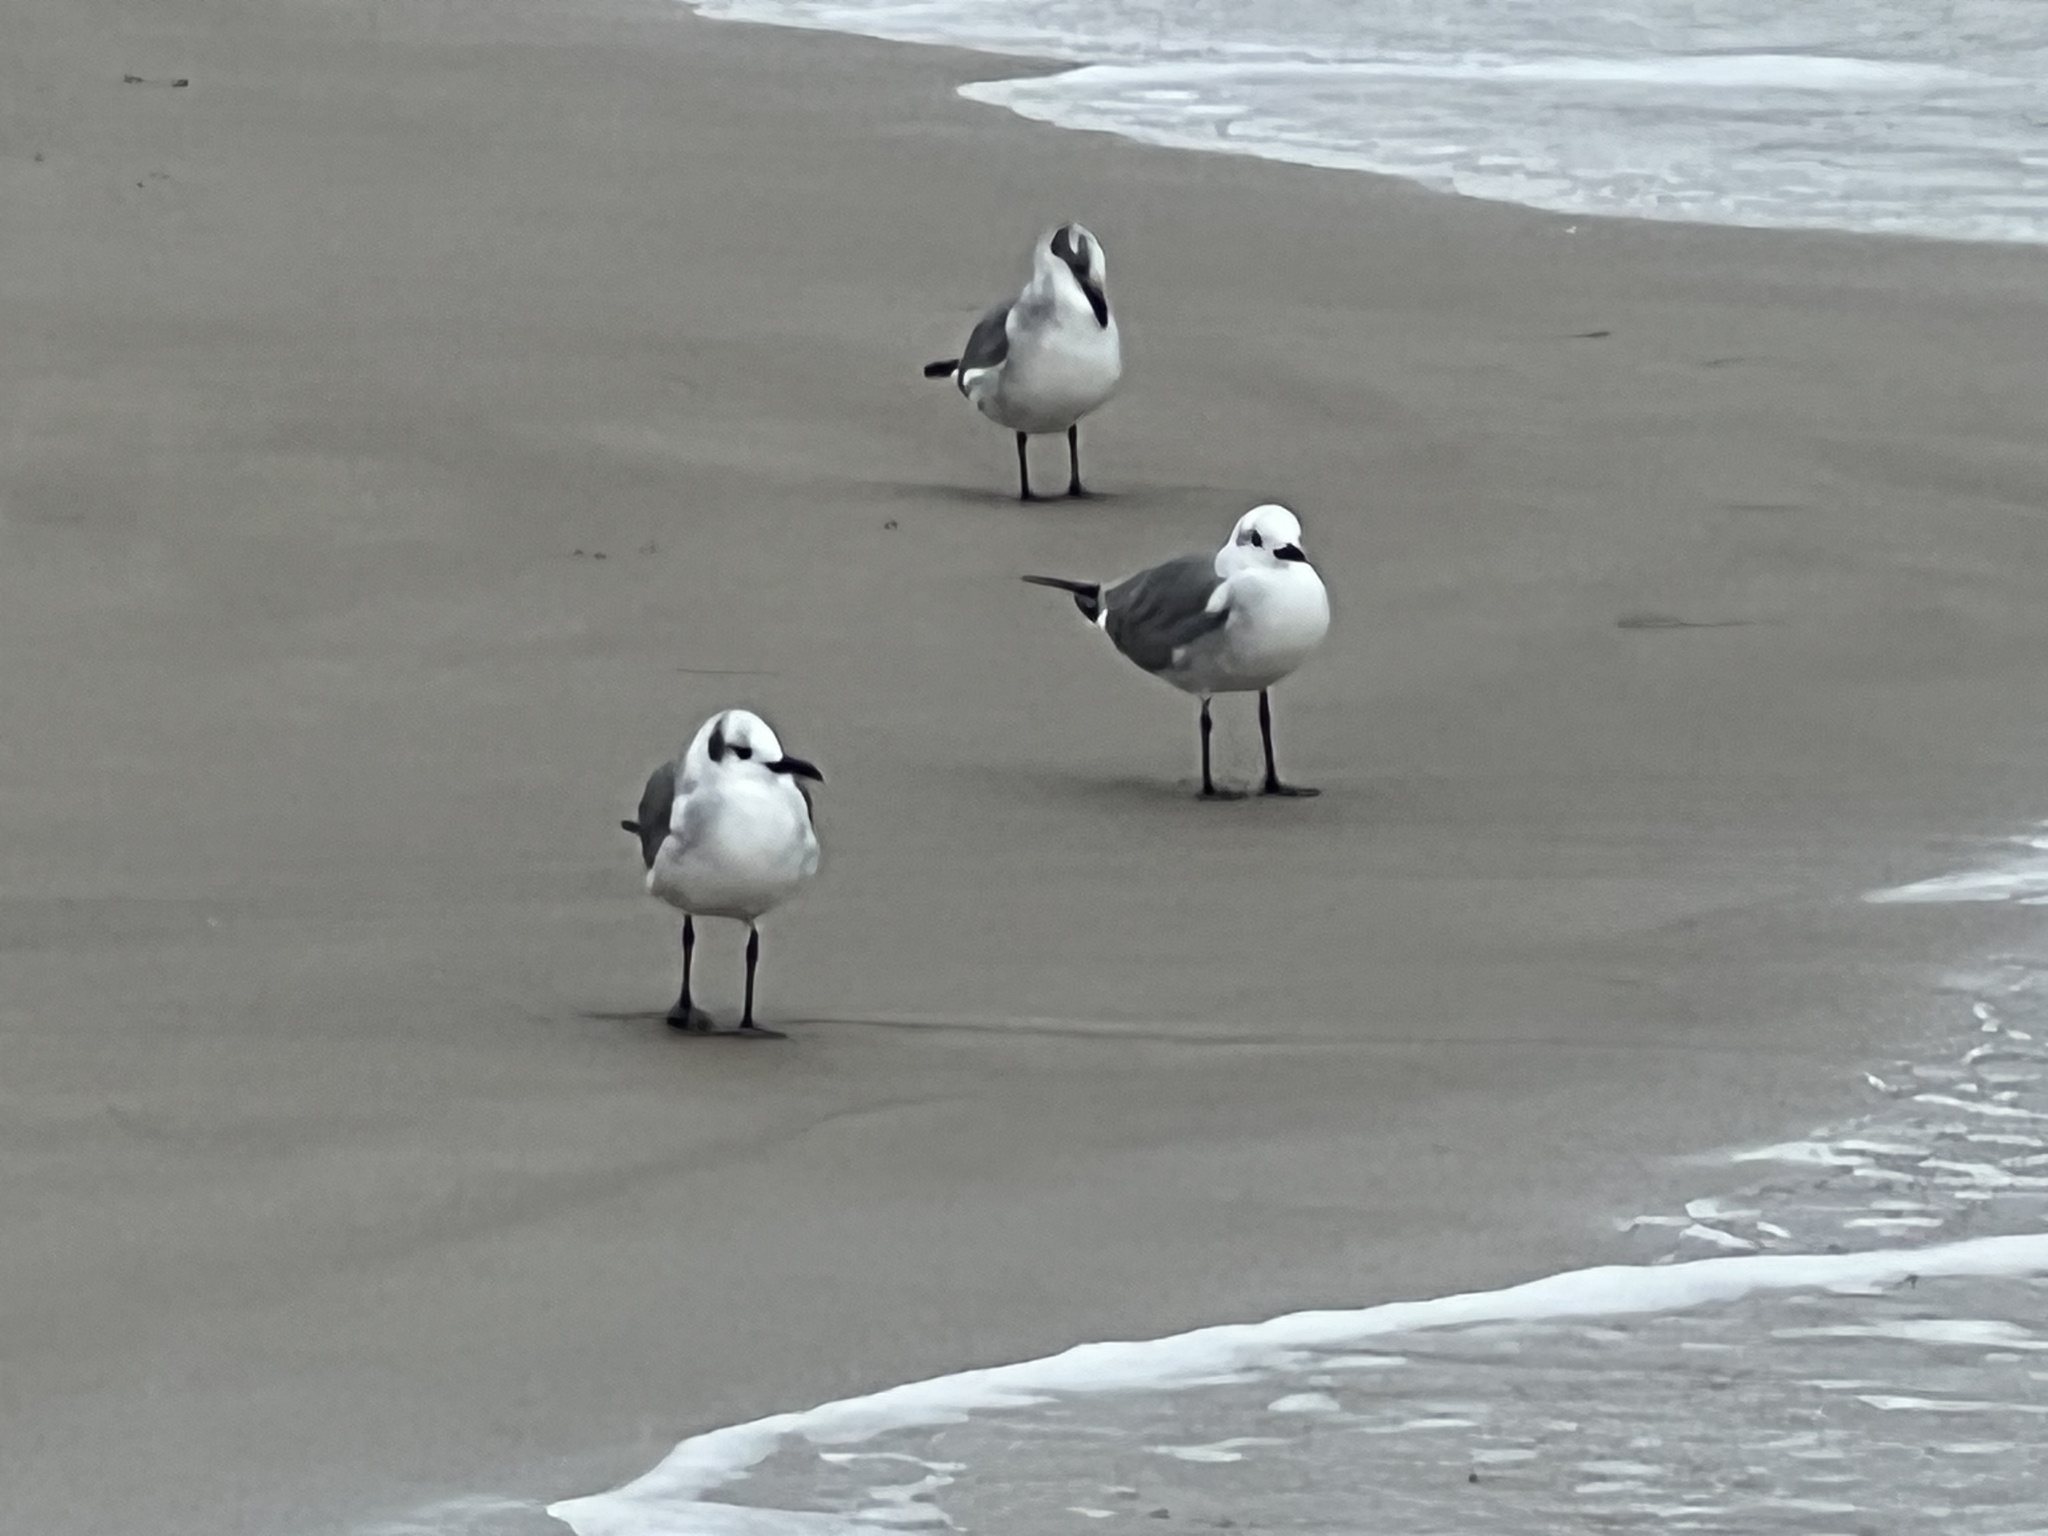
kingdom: Animalia
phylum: Chordata
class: Aves
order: Charadriiformes
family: Laridae
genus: Leucophaeus
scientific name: Leucophaeus atricilla
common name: Laughing gull
